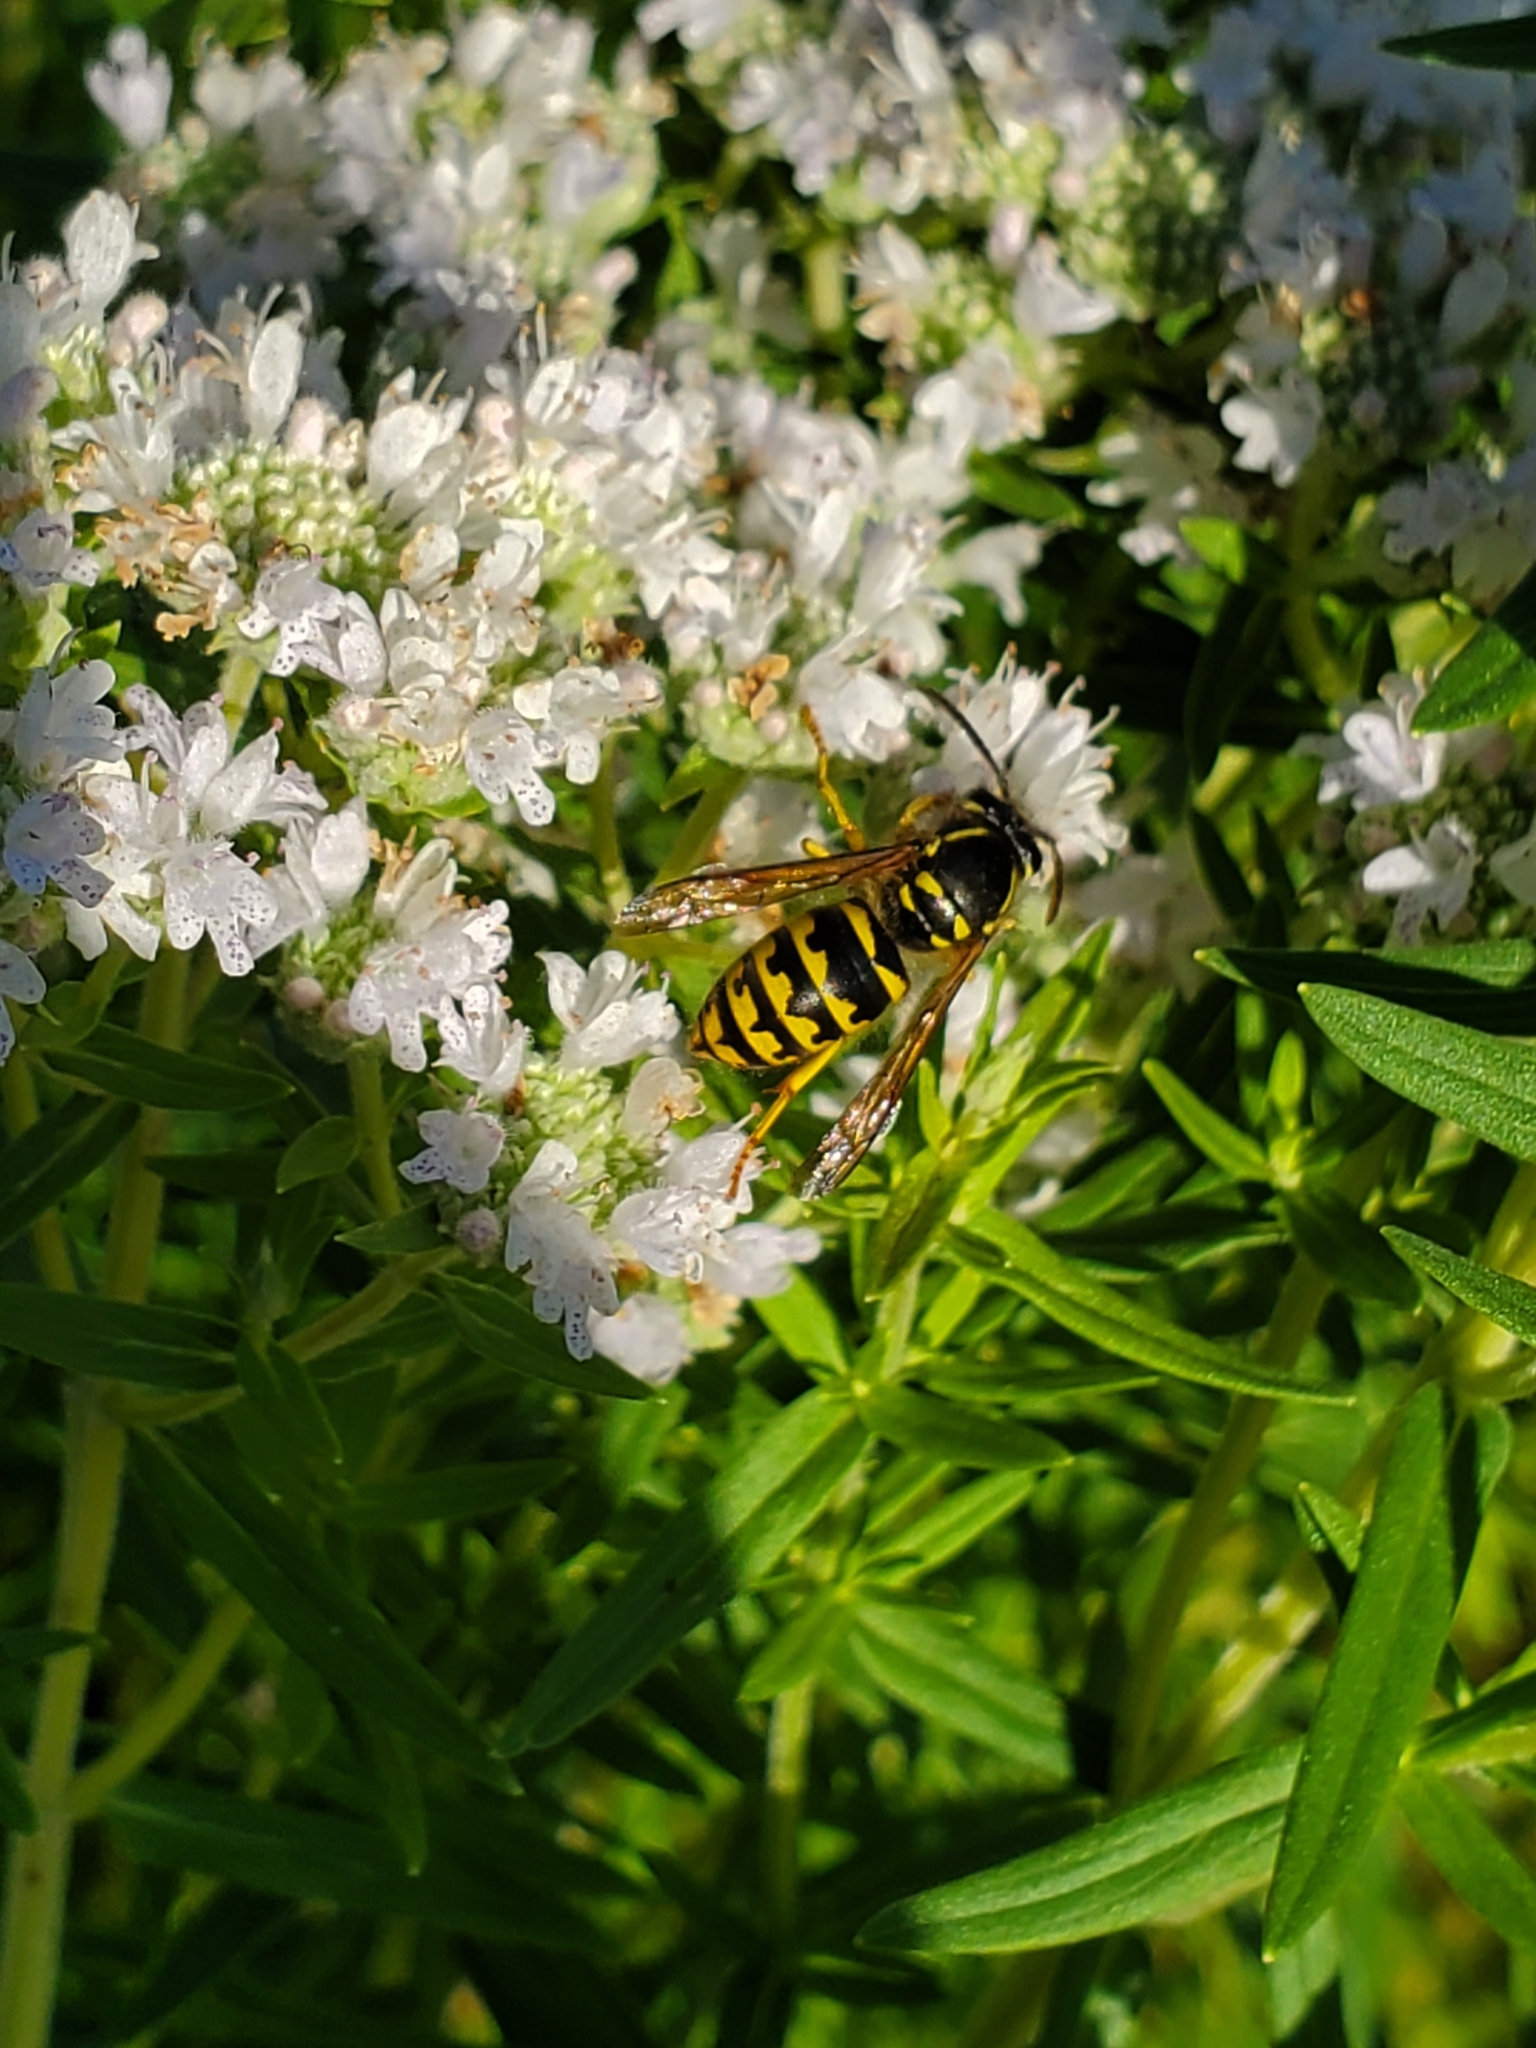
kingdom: Animalia
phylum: Arthropoda
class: Insecta
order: Hymenoptera
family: Vespidae
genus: Dolichovespula
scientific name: Dolichovespula arenaria
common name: Aerial yellowjacket
